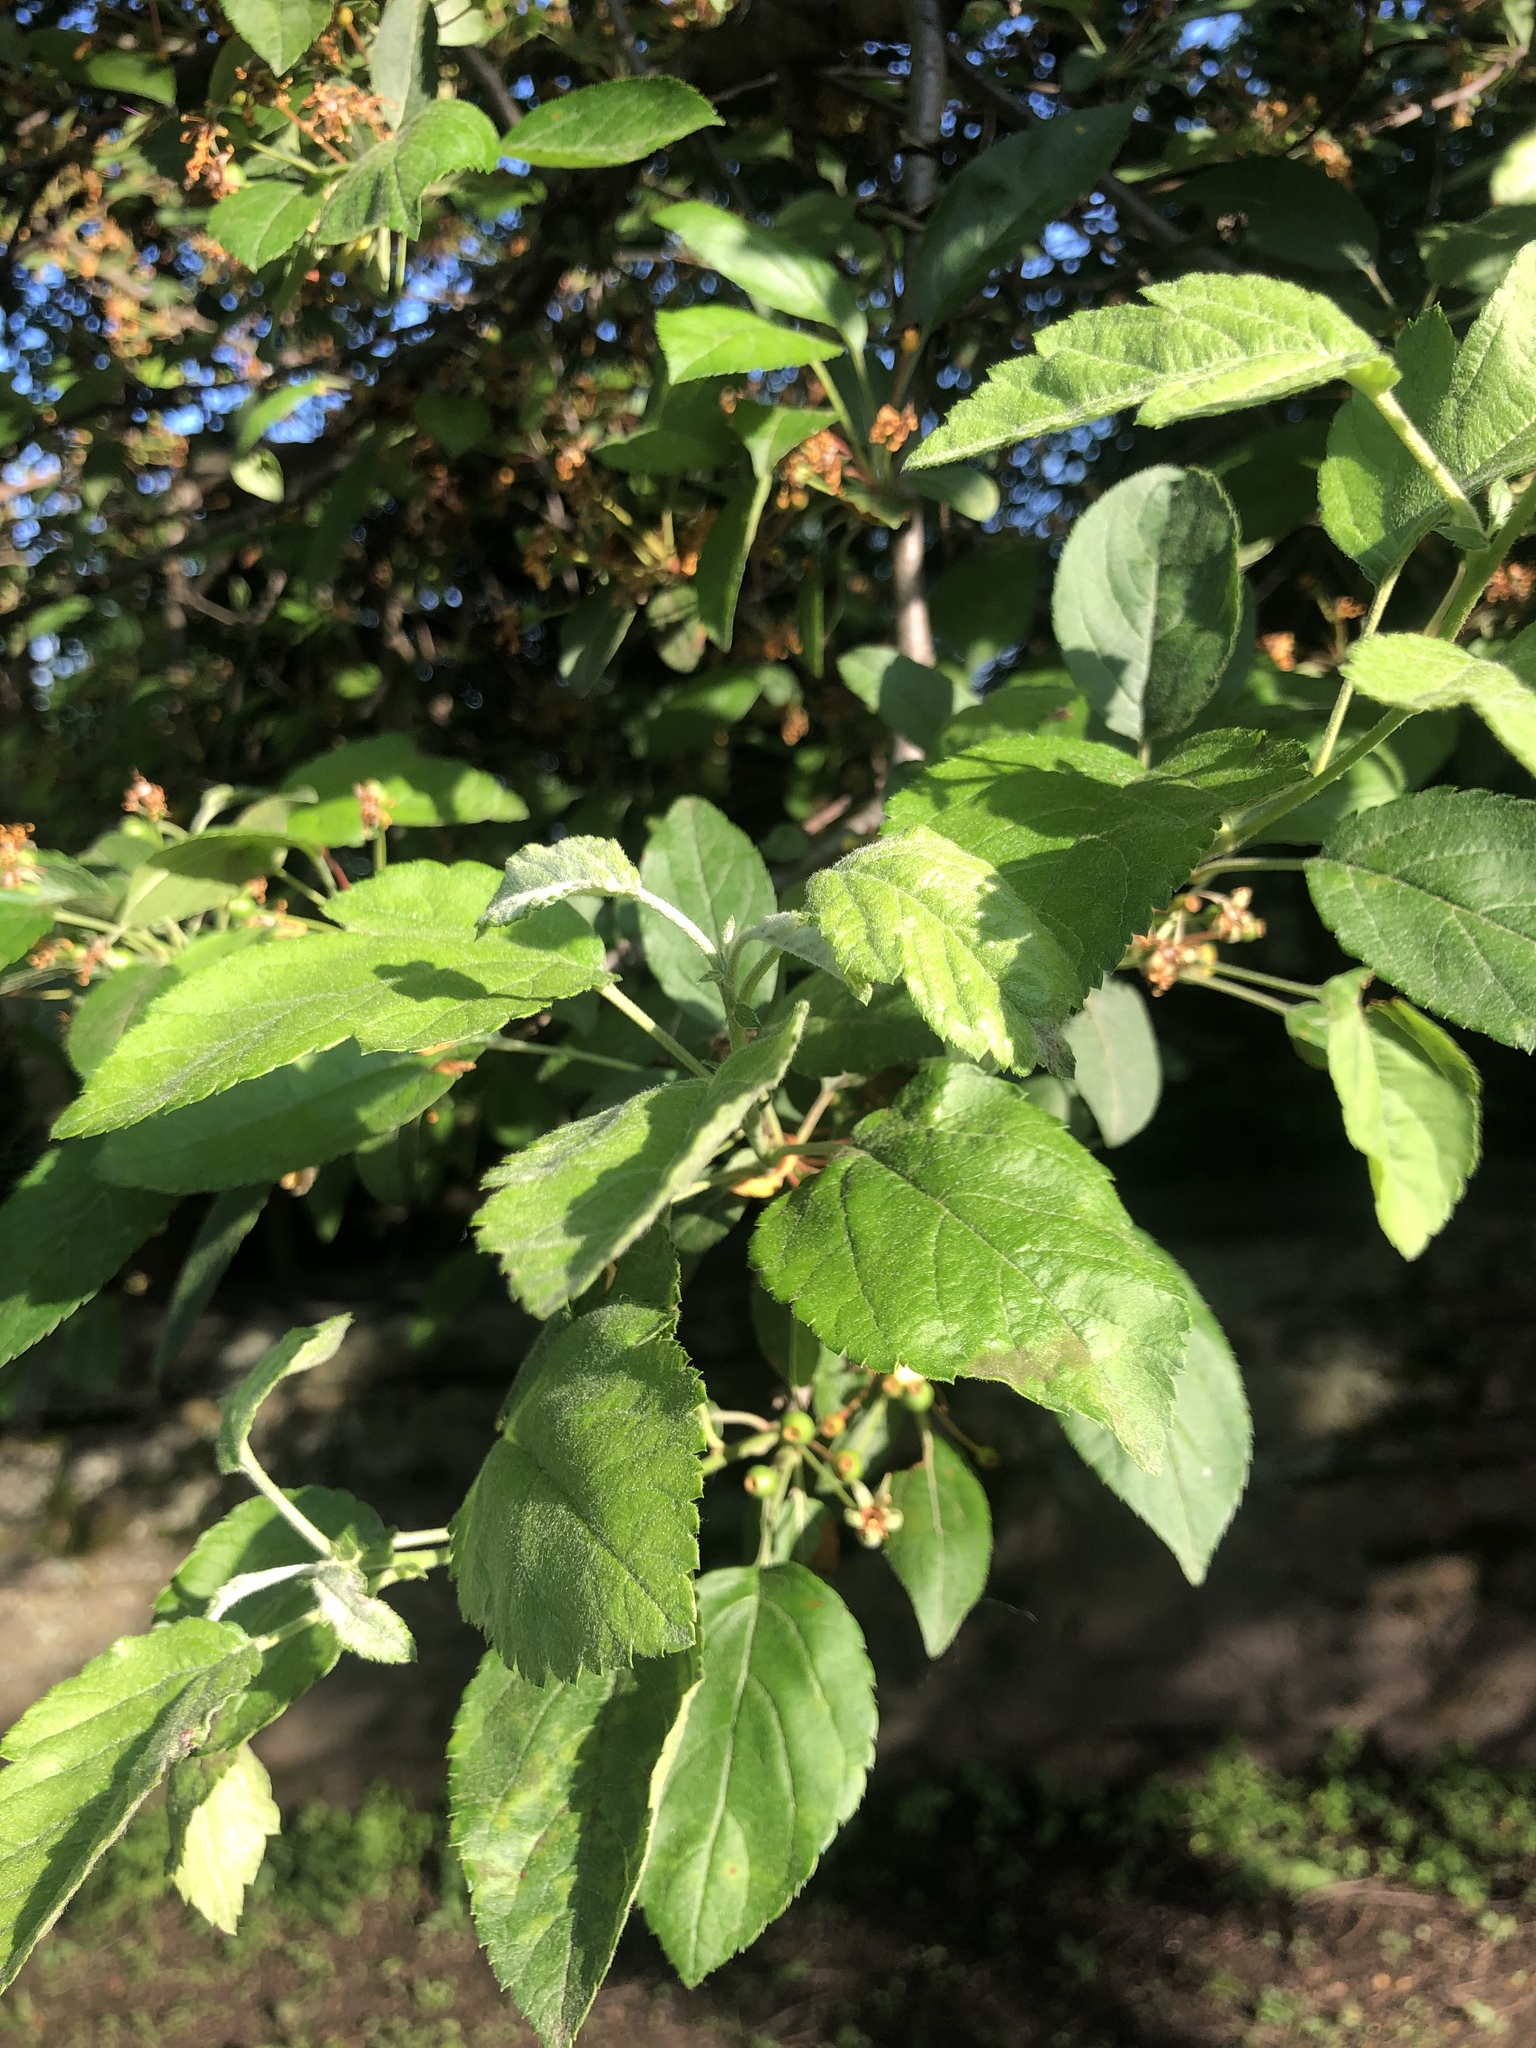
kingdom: Plantae
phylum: Tracheophyta
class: Magnoliopsida
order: Rosales
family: Rosaceae
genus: Malus
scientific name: Malus domestica
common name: Apple
